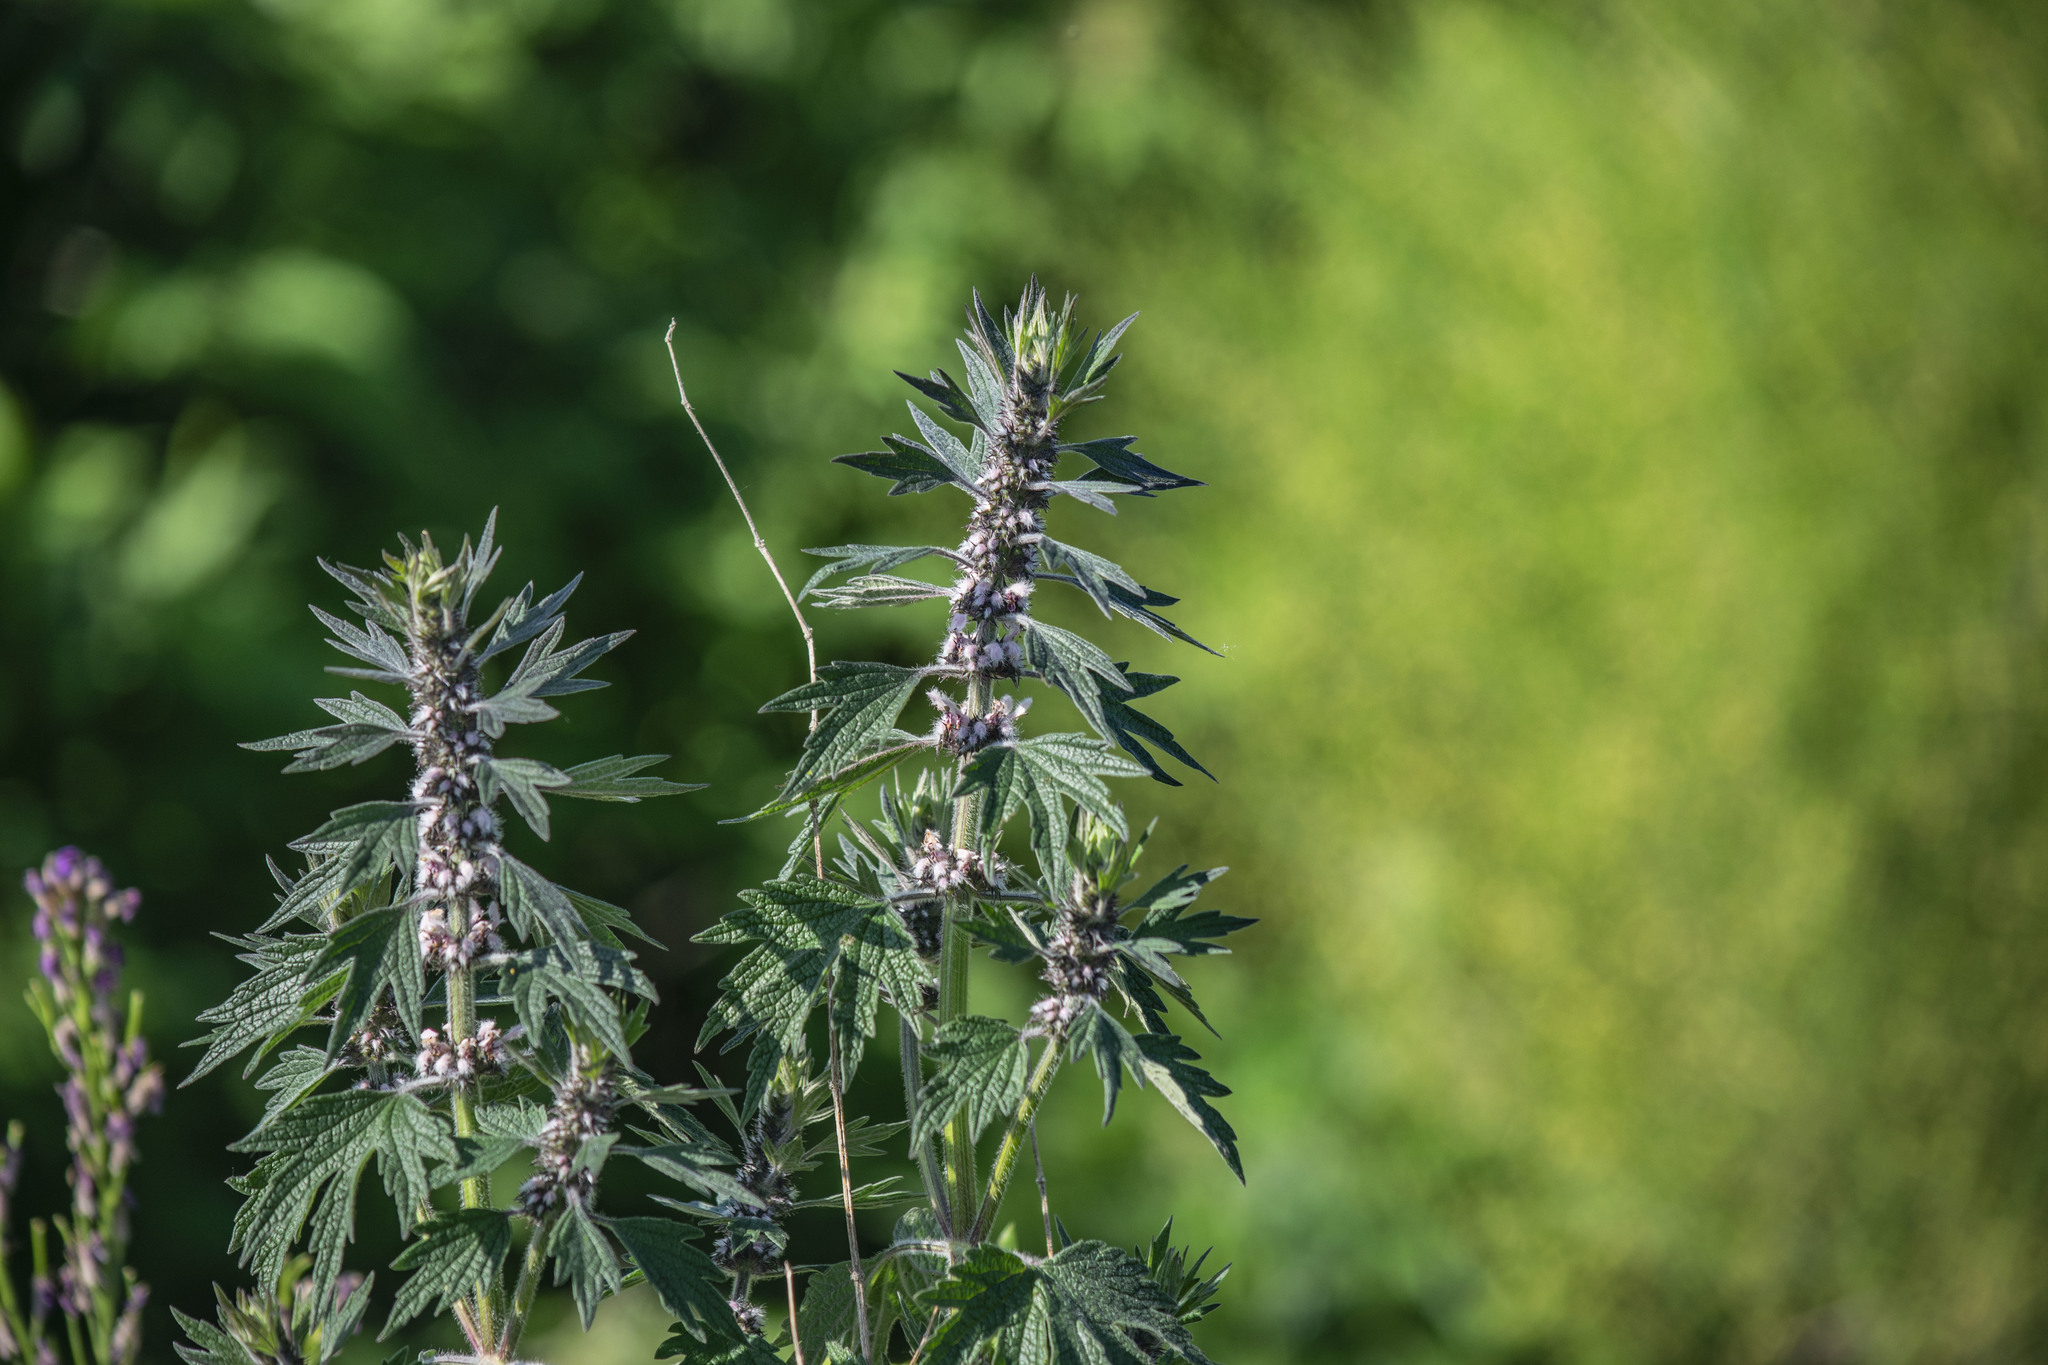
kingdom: Plantae
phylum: Tracheophyta
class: Magnoliopsida
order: Lamiales
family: Lamiaceae
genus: Leonurus
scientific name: Leonurus quinquelobatus
